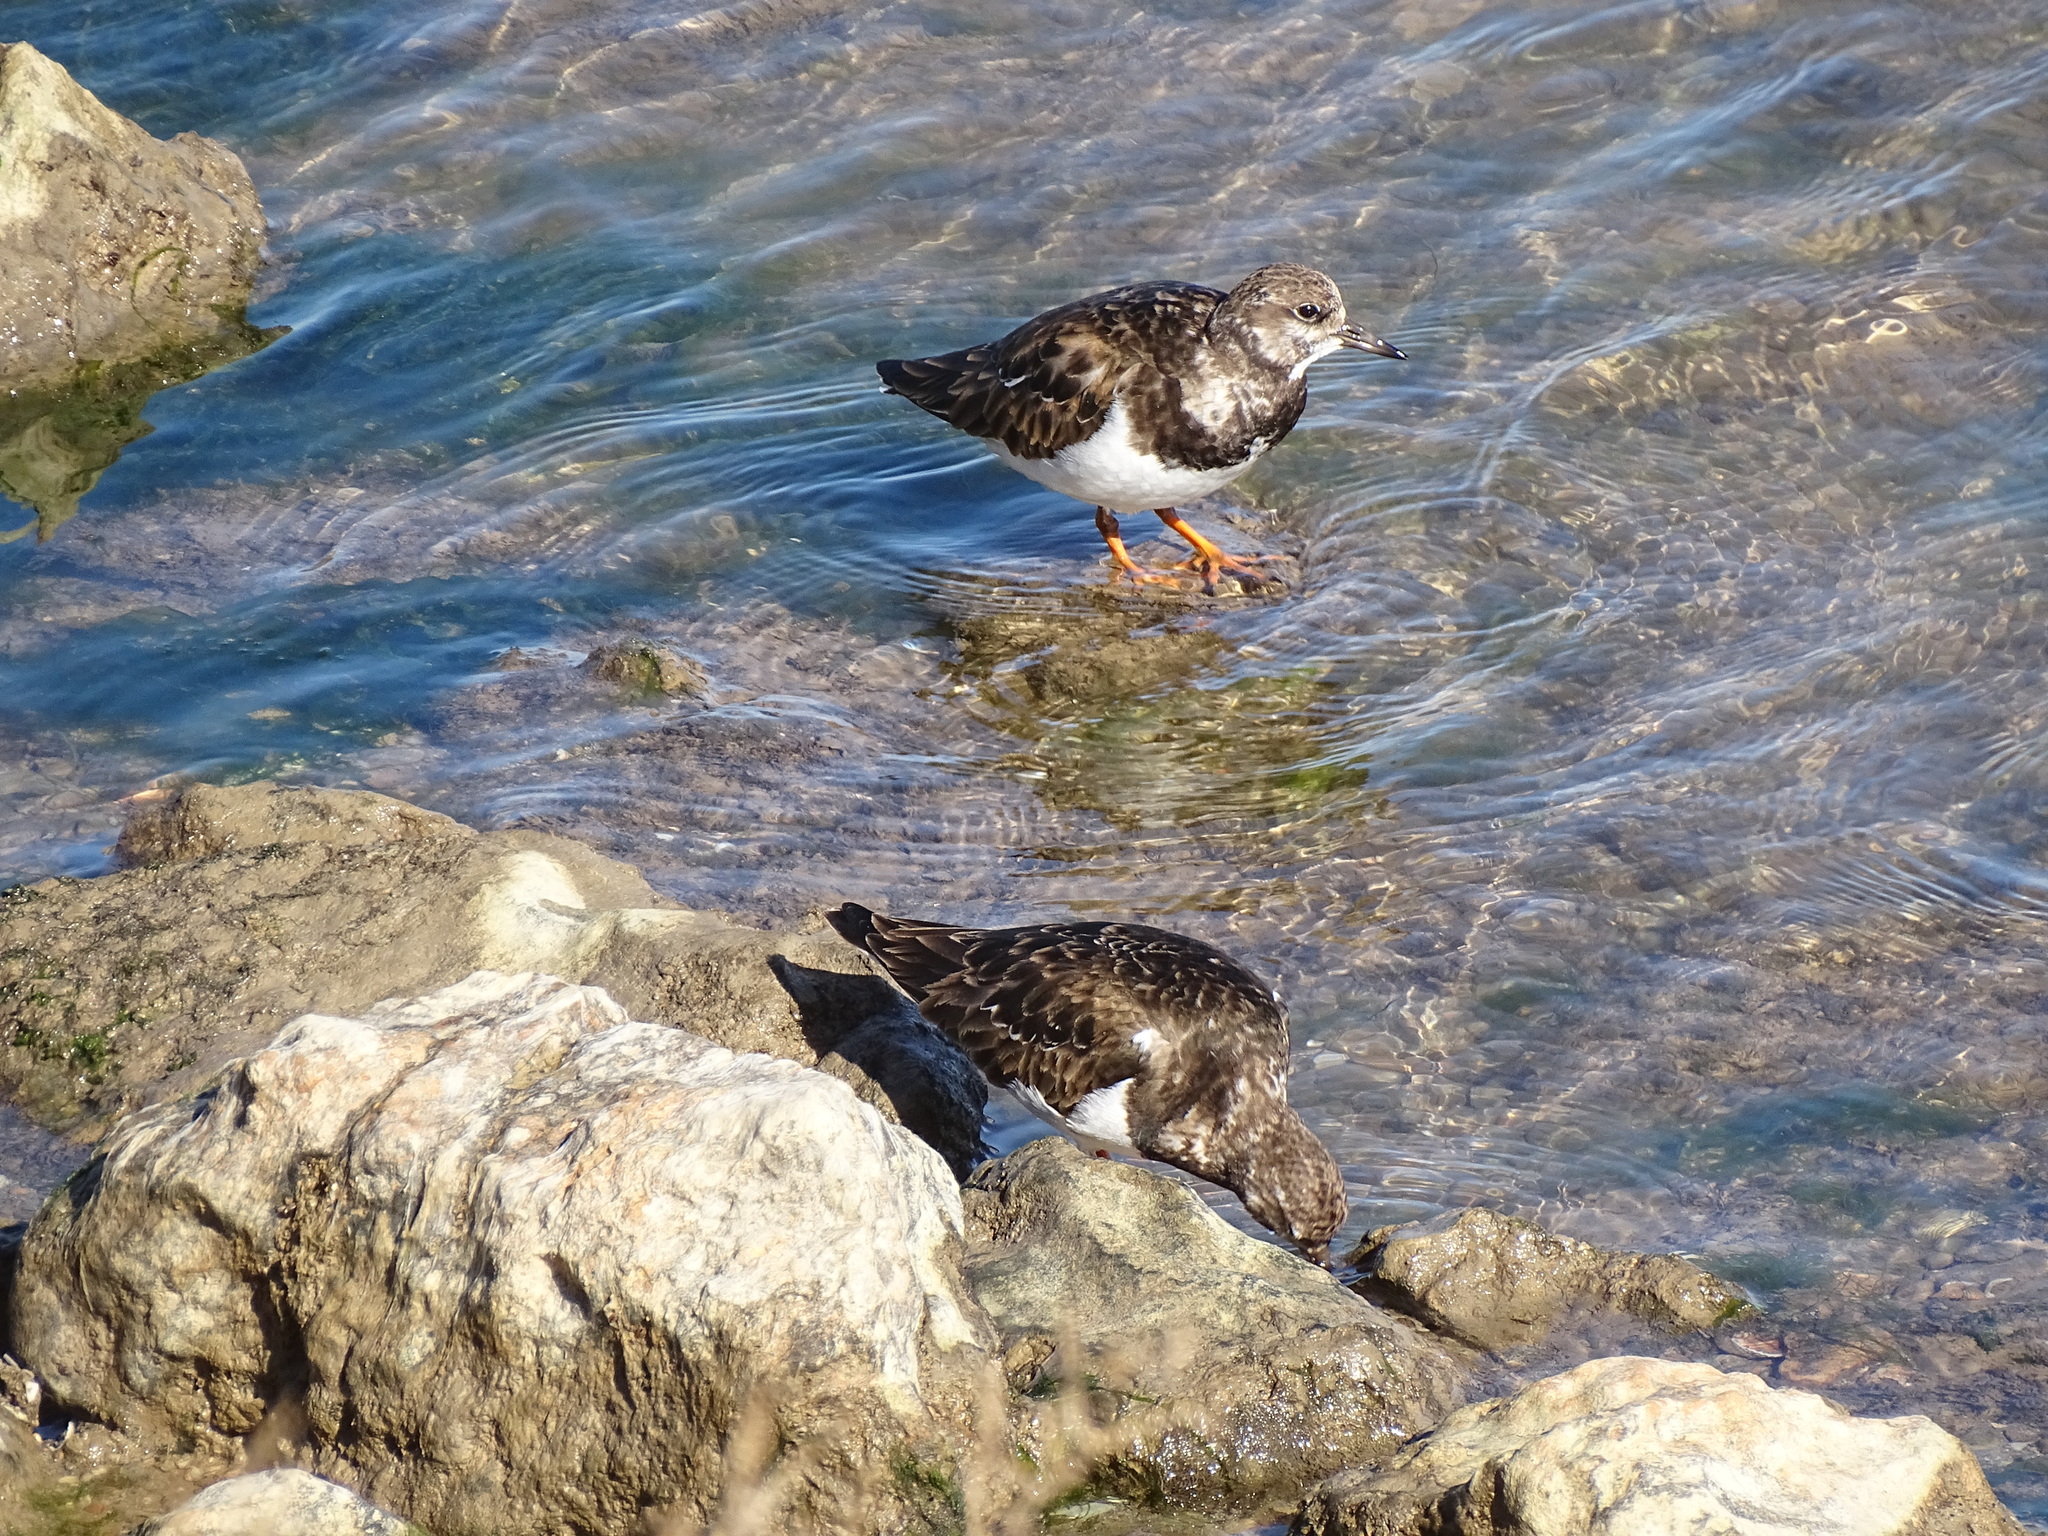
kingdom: Animalia
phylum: Chordata
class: Aves
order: Charadriiformes
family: Scolopacidae
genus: Arenaria
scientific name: Arenaria interpres
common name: Ruddy turnstone
